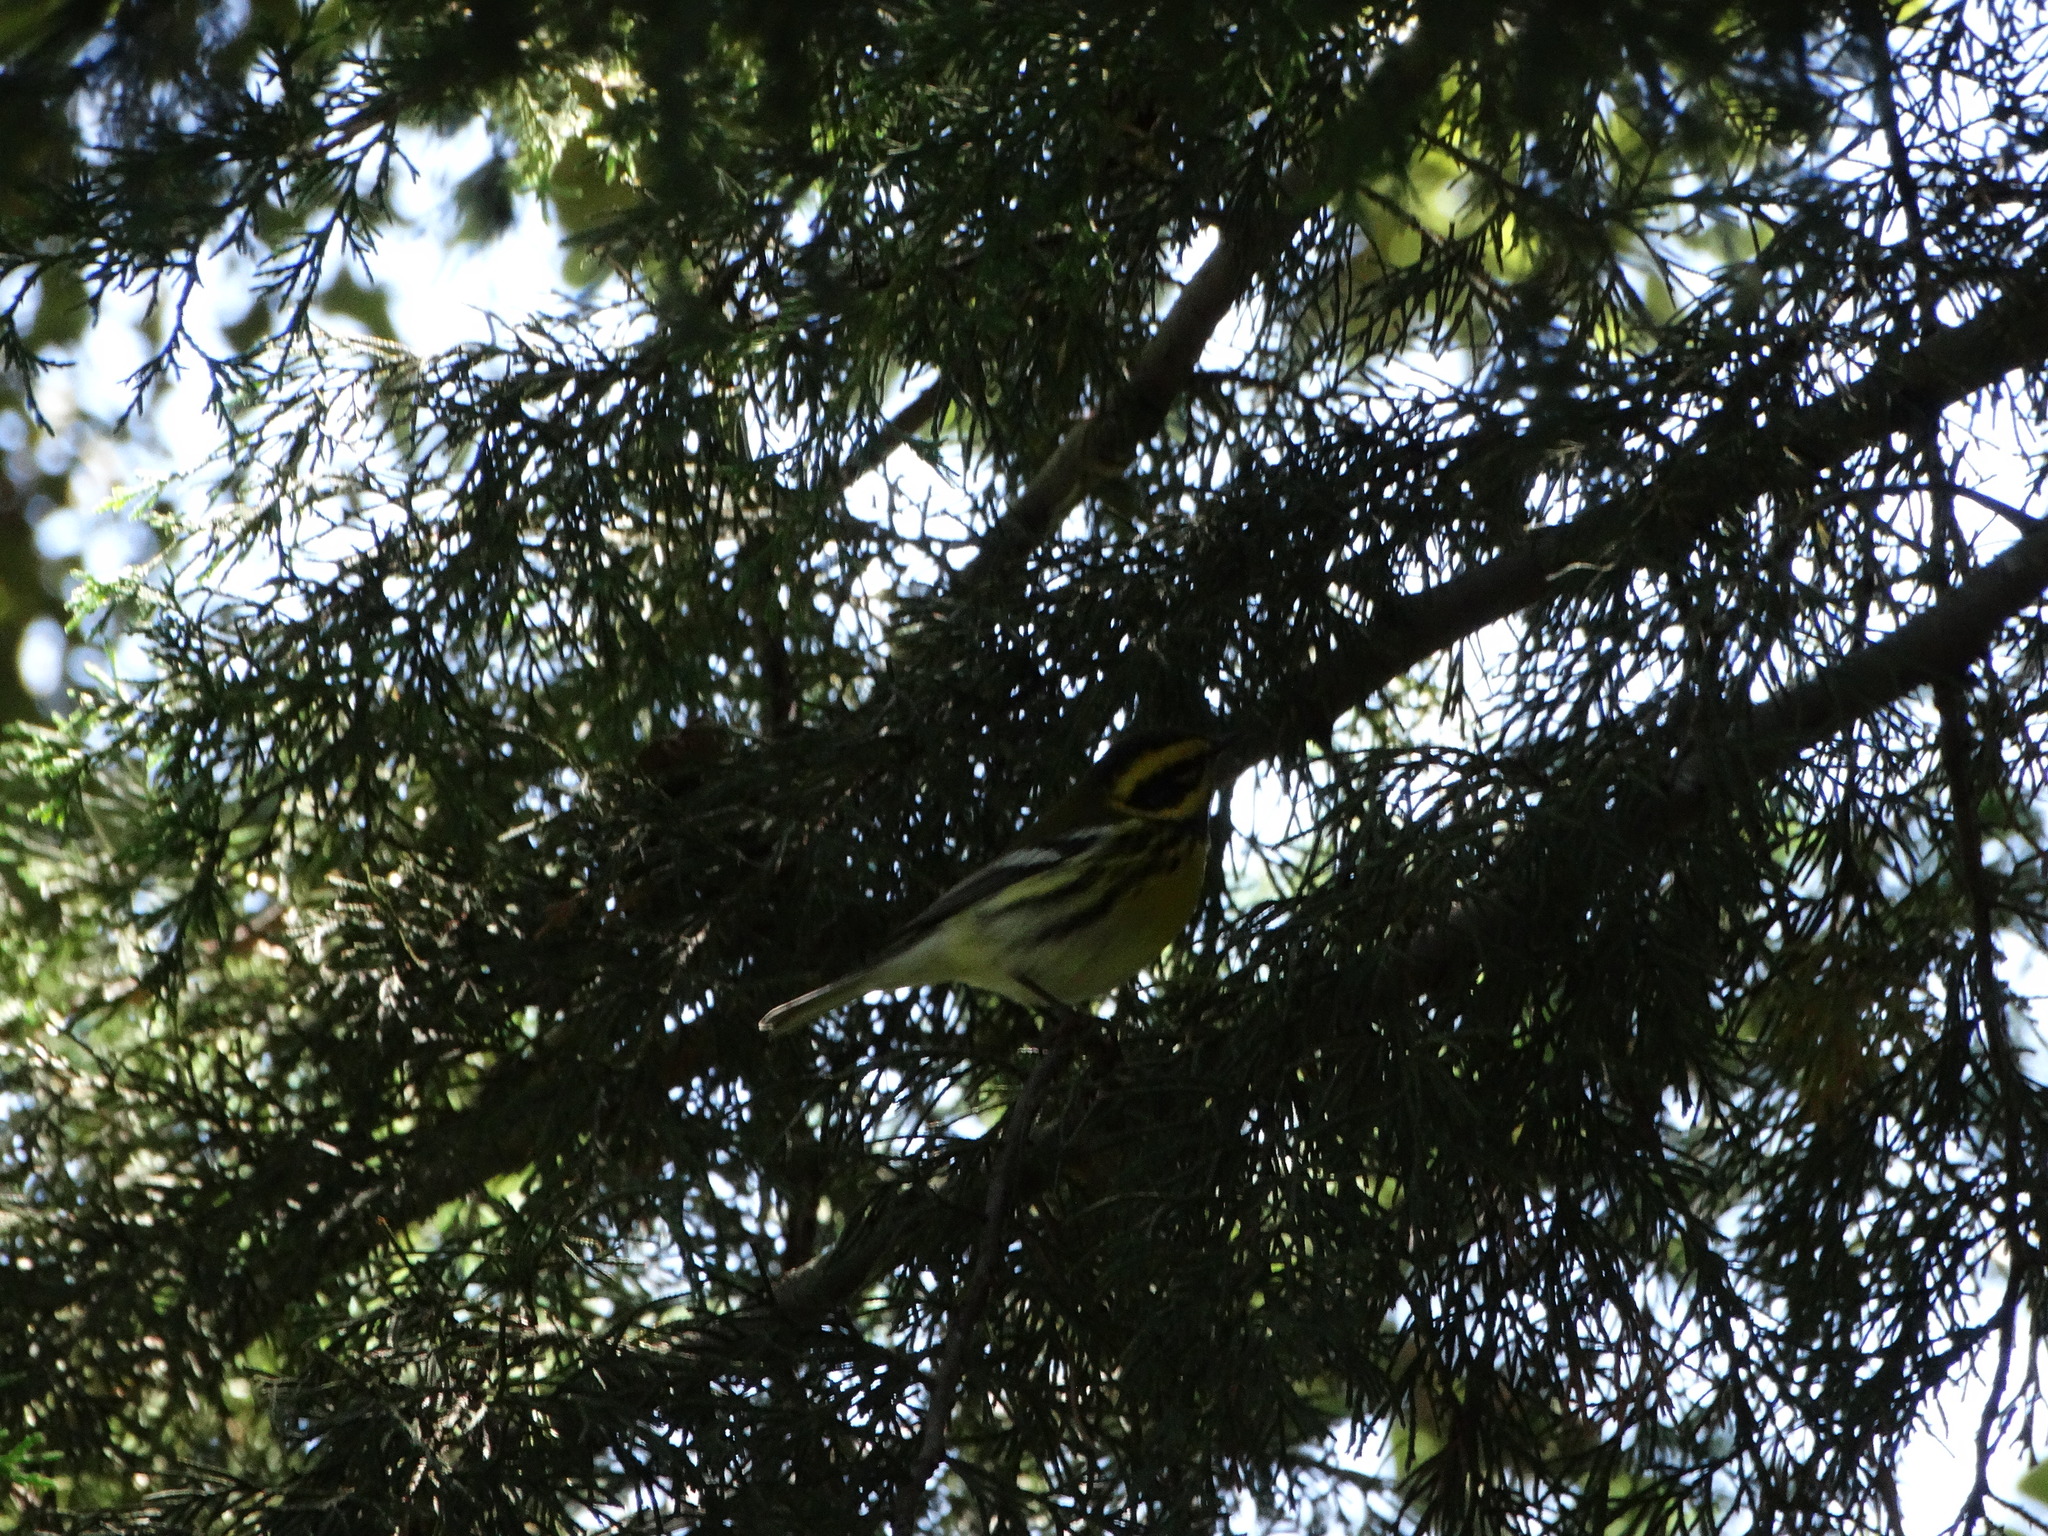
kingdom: Animalia
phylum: Chordata
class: Aves
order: Passeriformes
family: Parulidae
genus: Setophaga
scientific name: Setophaga townsendi
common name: Townsend's warbler
